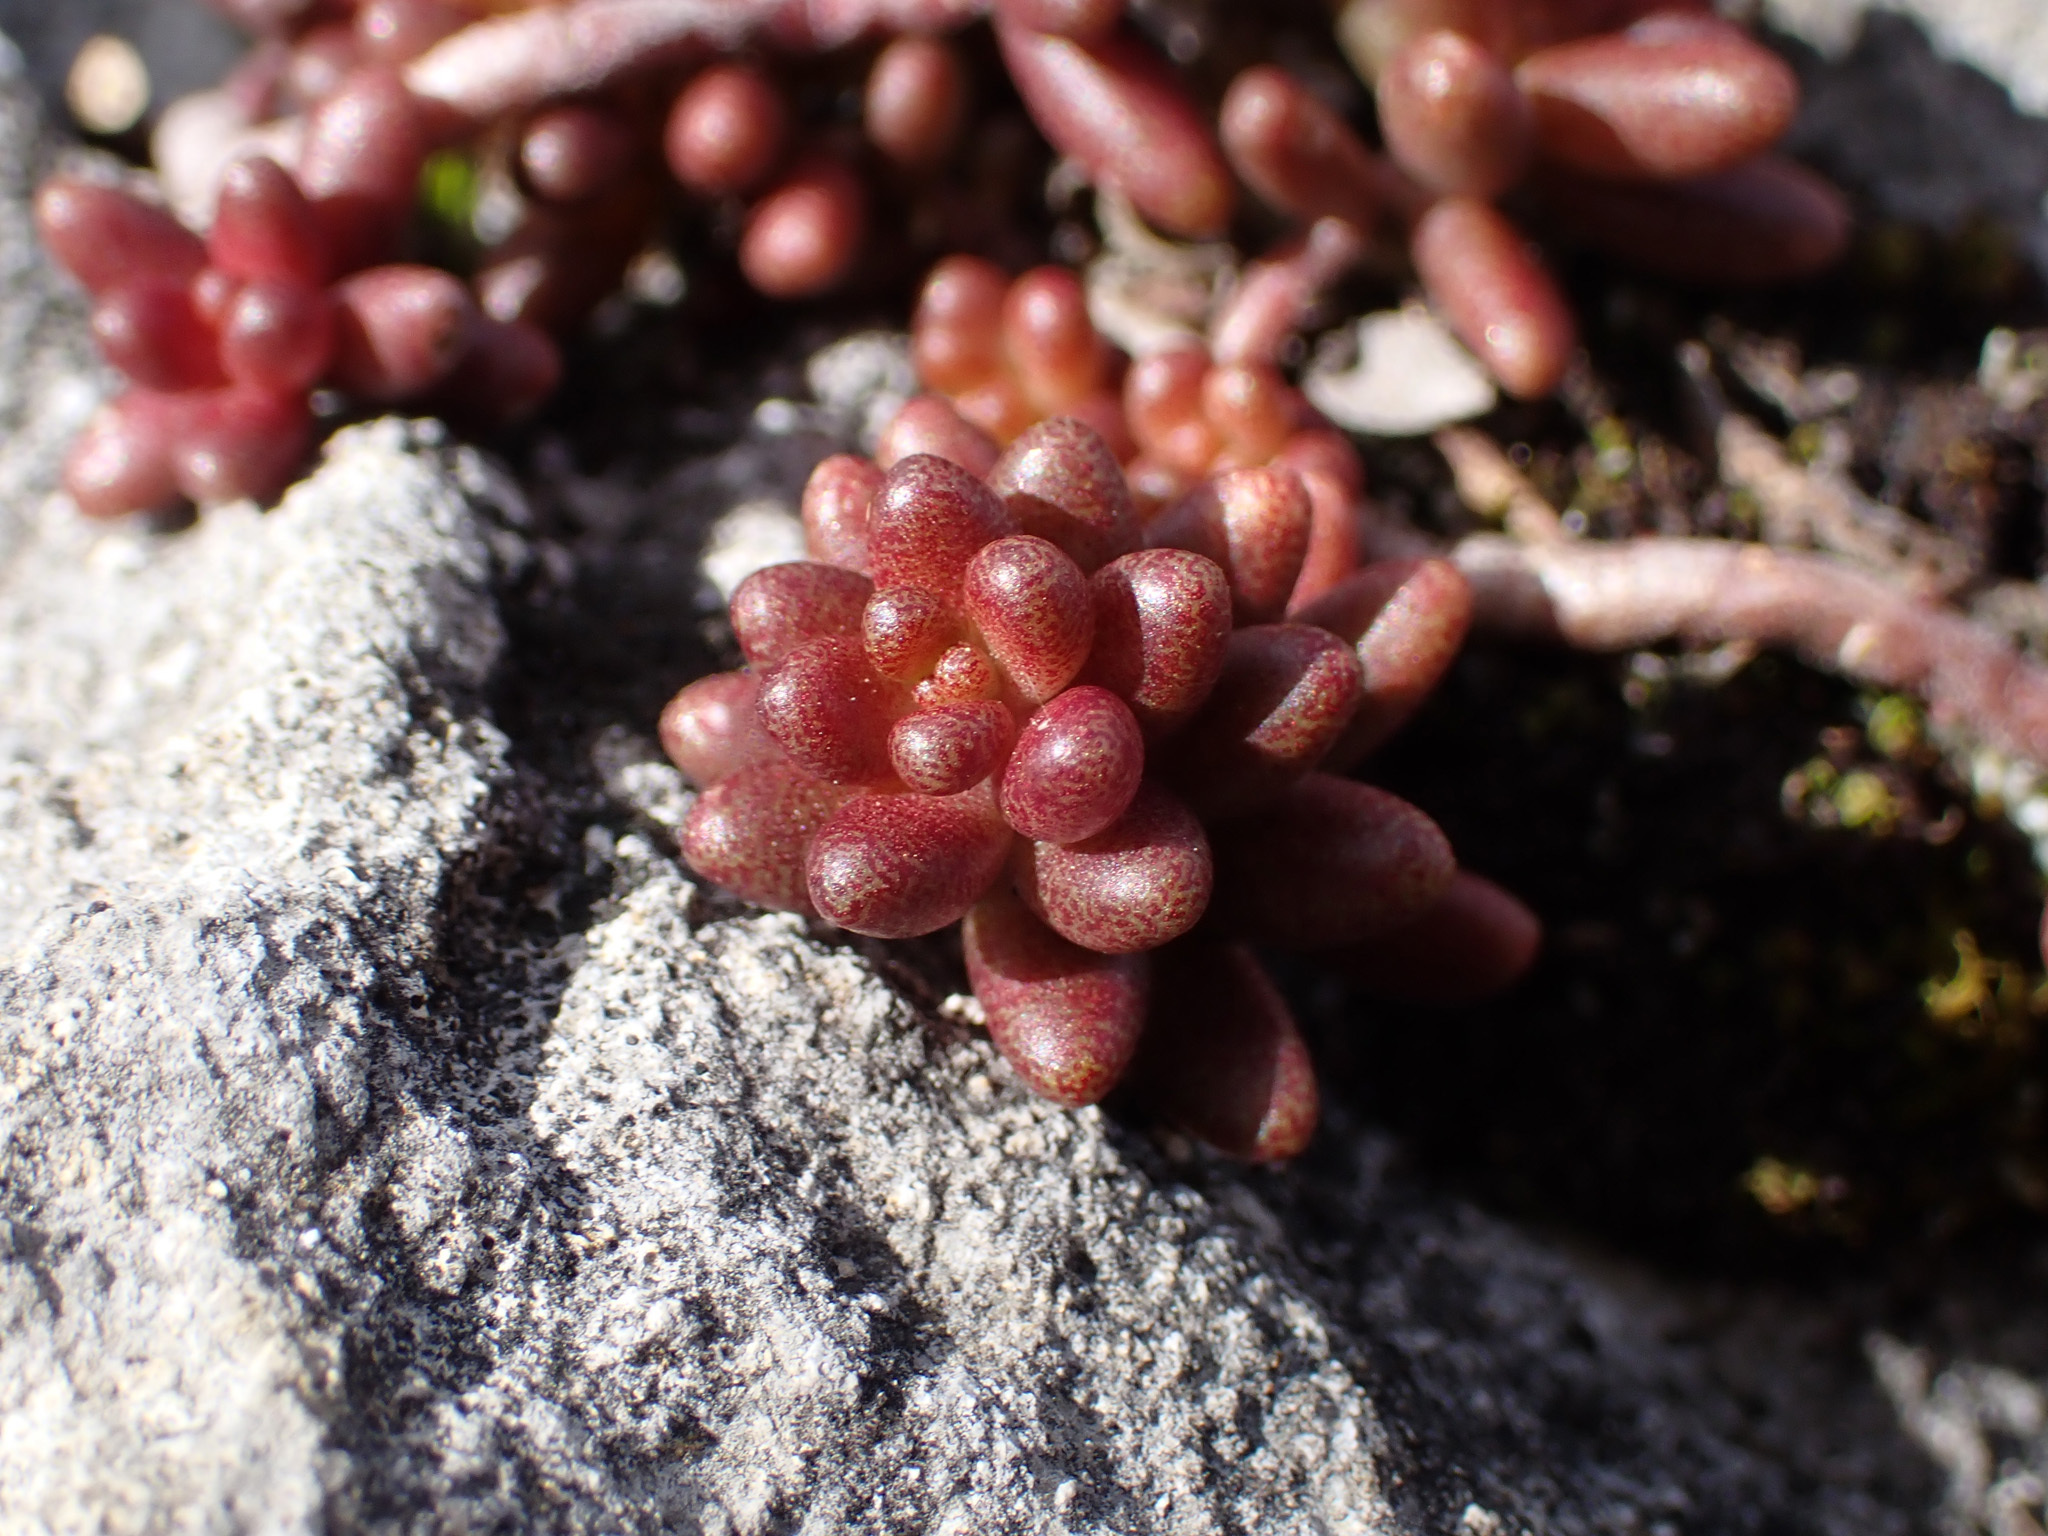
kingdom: Plantae
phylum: Tracheophyta
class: Magnoliopsida
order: Saxifragales
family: Crassulaceae
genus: Sedum
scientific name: Sedum album
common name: White stonecrop
